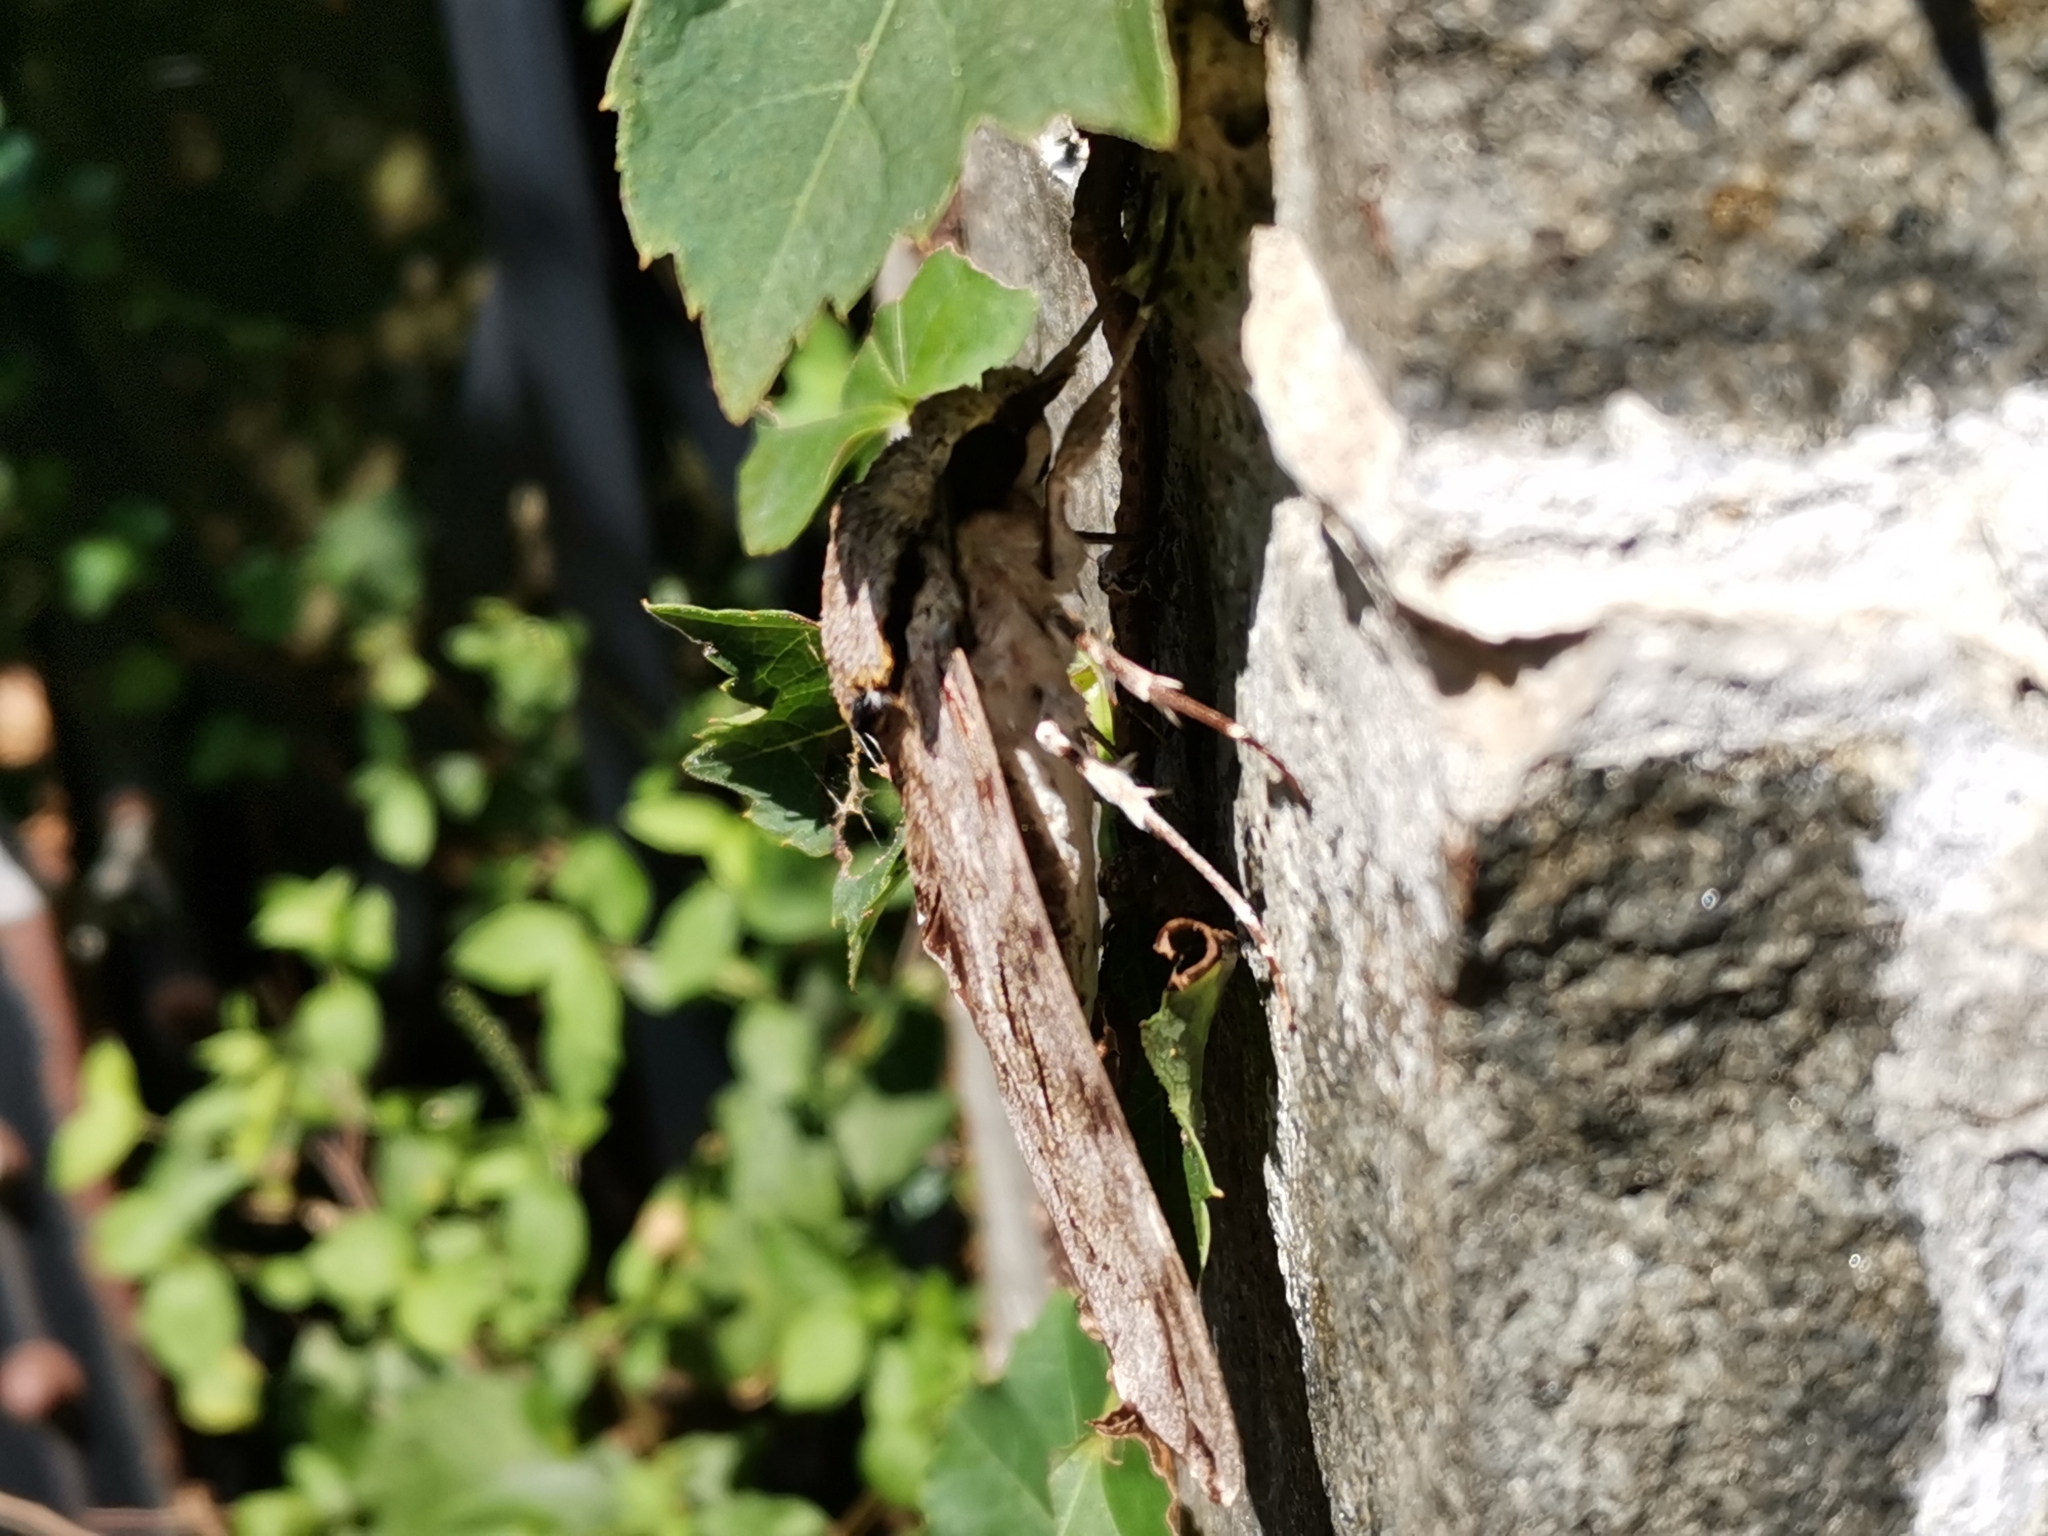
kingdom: Animalia
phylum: Arthropoda
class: Insecta
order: Lepidoptera
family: Sphingidae
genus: Psilogramma
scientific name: Psilogramma increta
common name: Gray hawk moth
